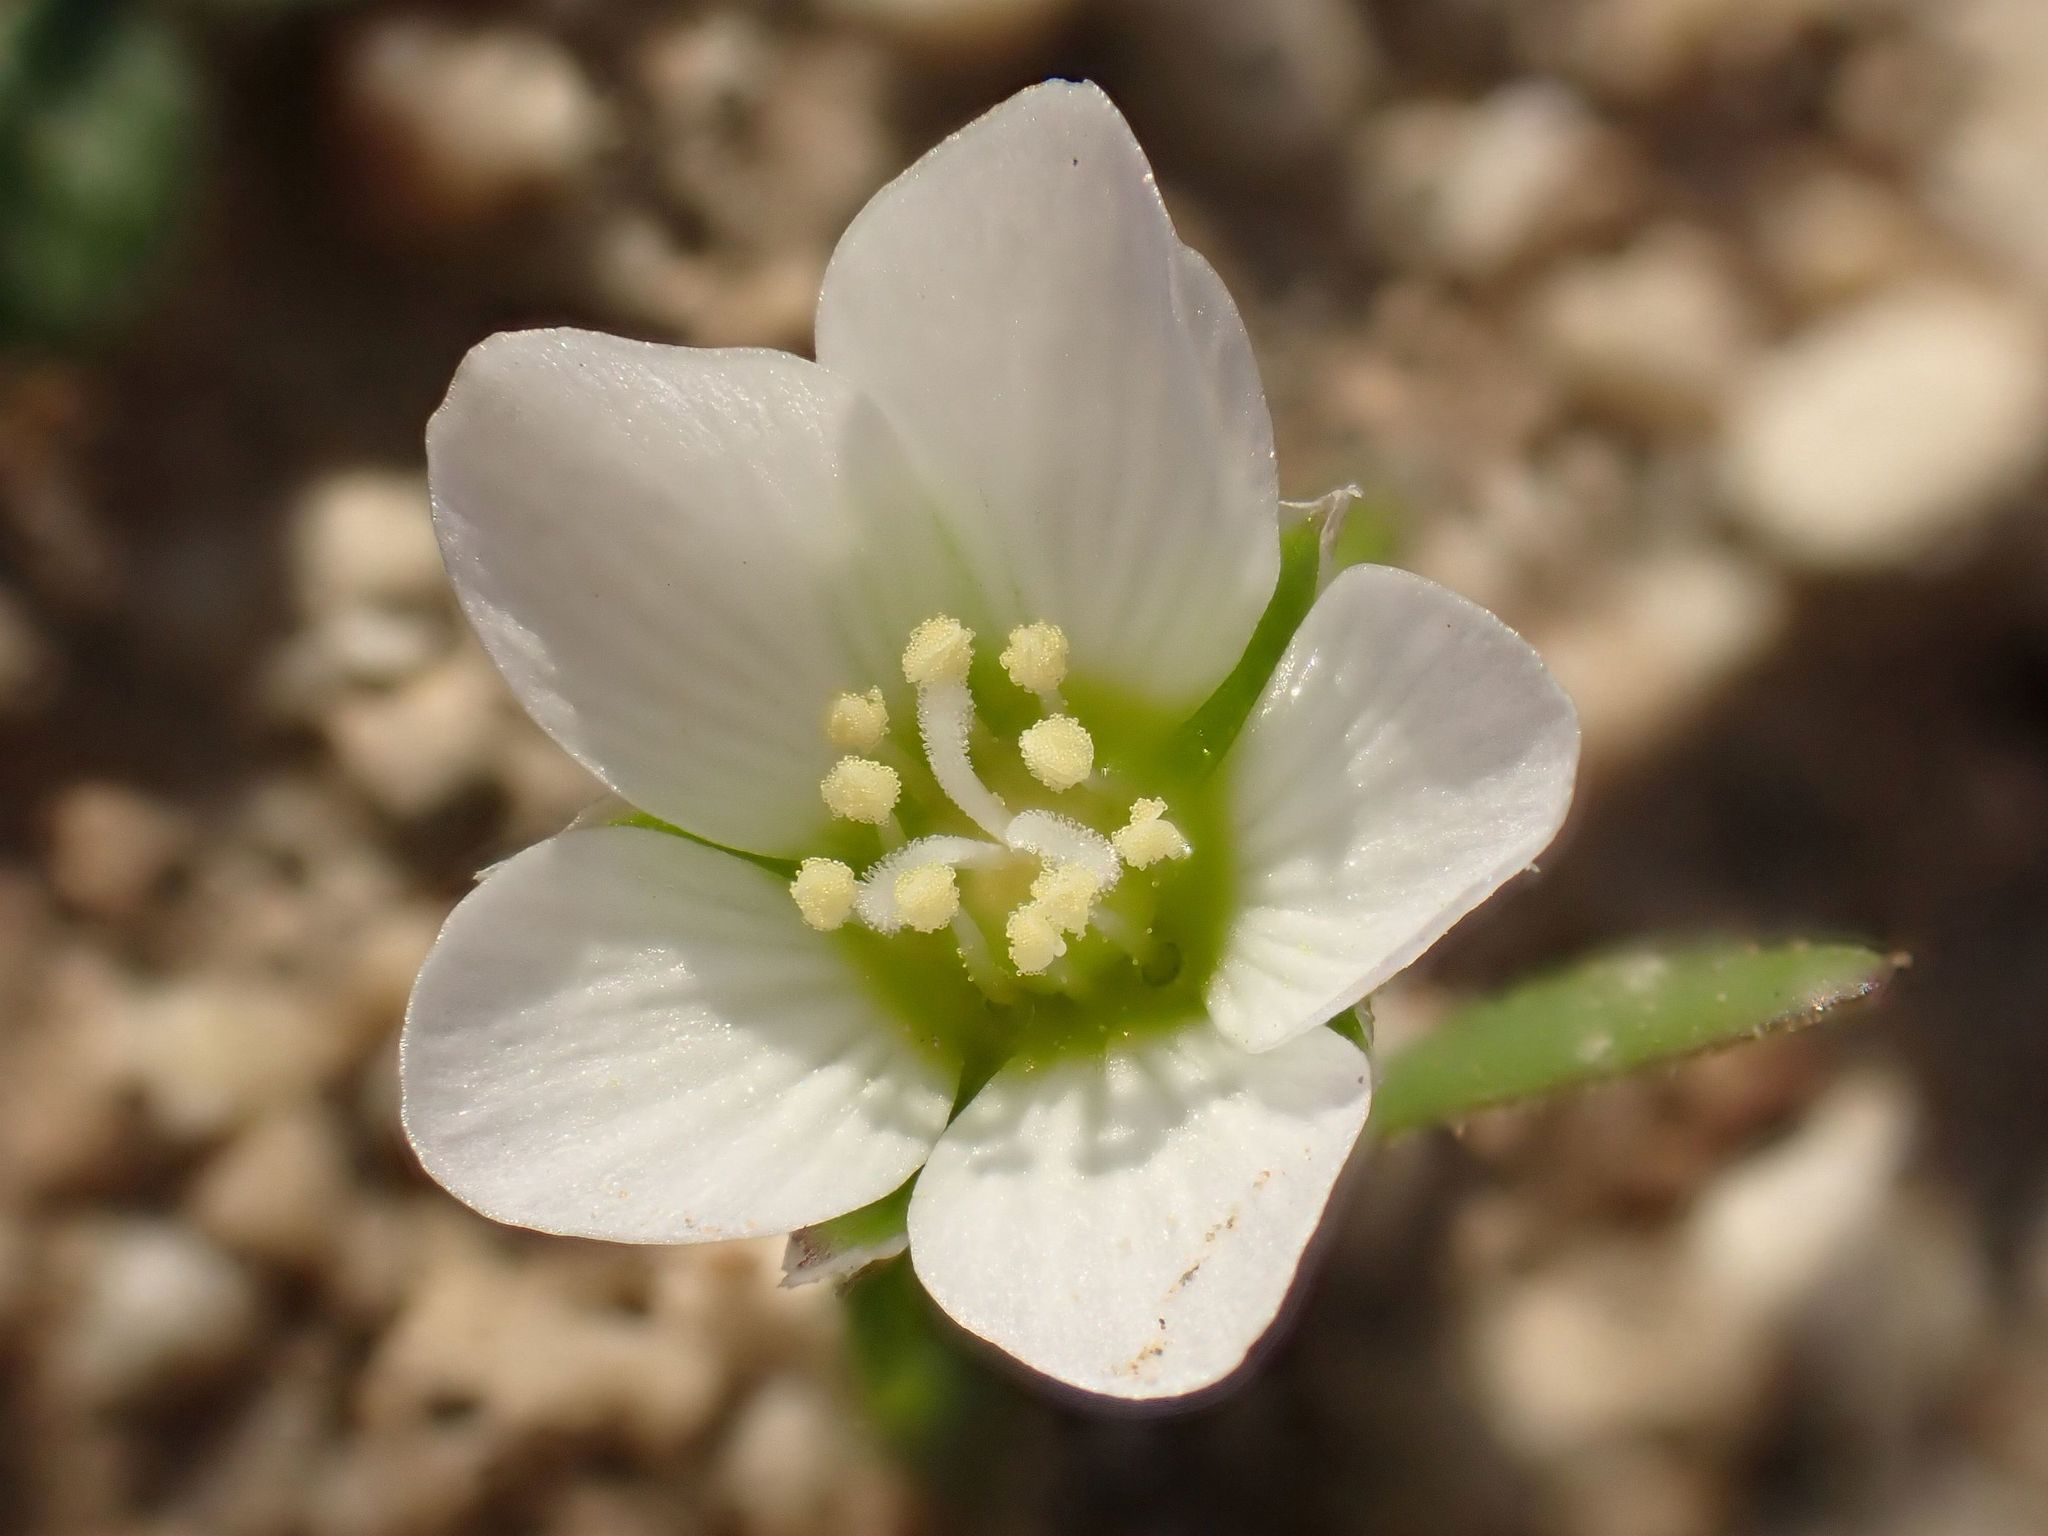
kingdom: Plantae
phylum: Tracheophyta
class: Magnoliopsida
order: Caryophyllales
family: Caryophyllaceae
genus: Holosteum
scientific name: Holosteum umbellatum
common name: Jagged chickweed
